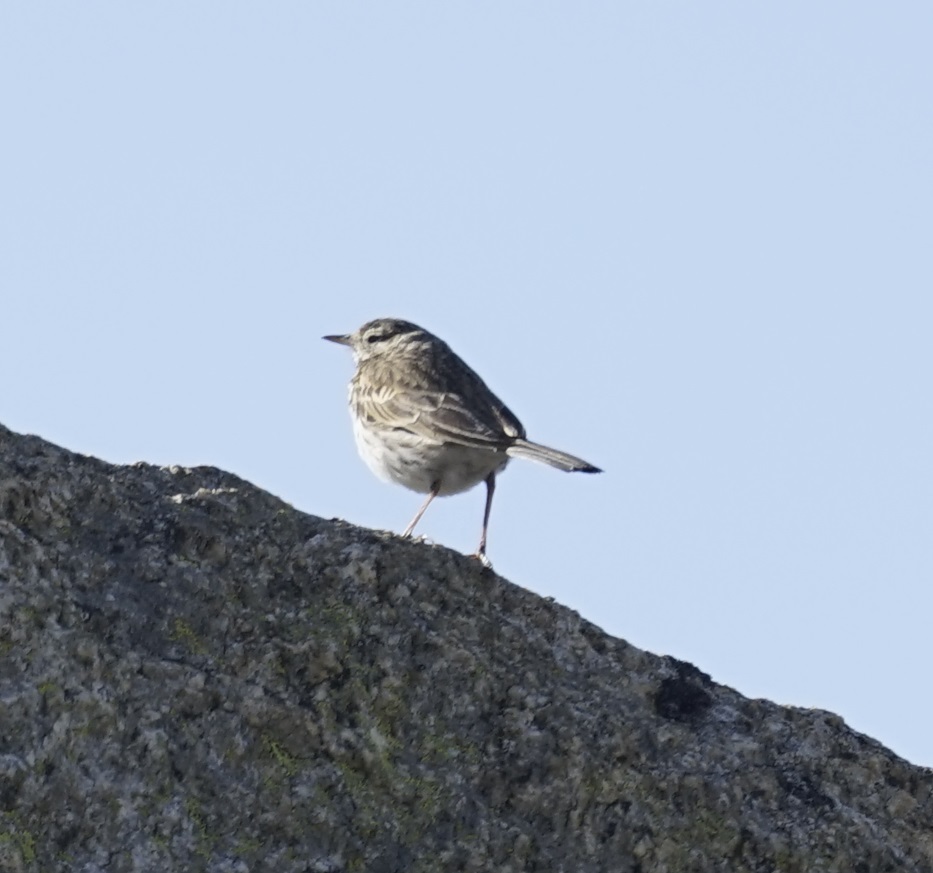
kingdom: Animalia
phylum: Chordata
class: Aves
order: Passeriformes
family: Motacillidae
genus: Anthus
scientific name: Anthus australis
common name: Australian pipit
